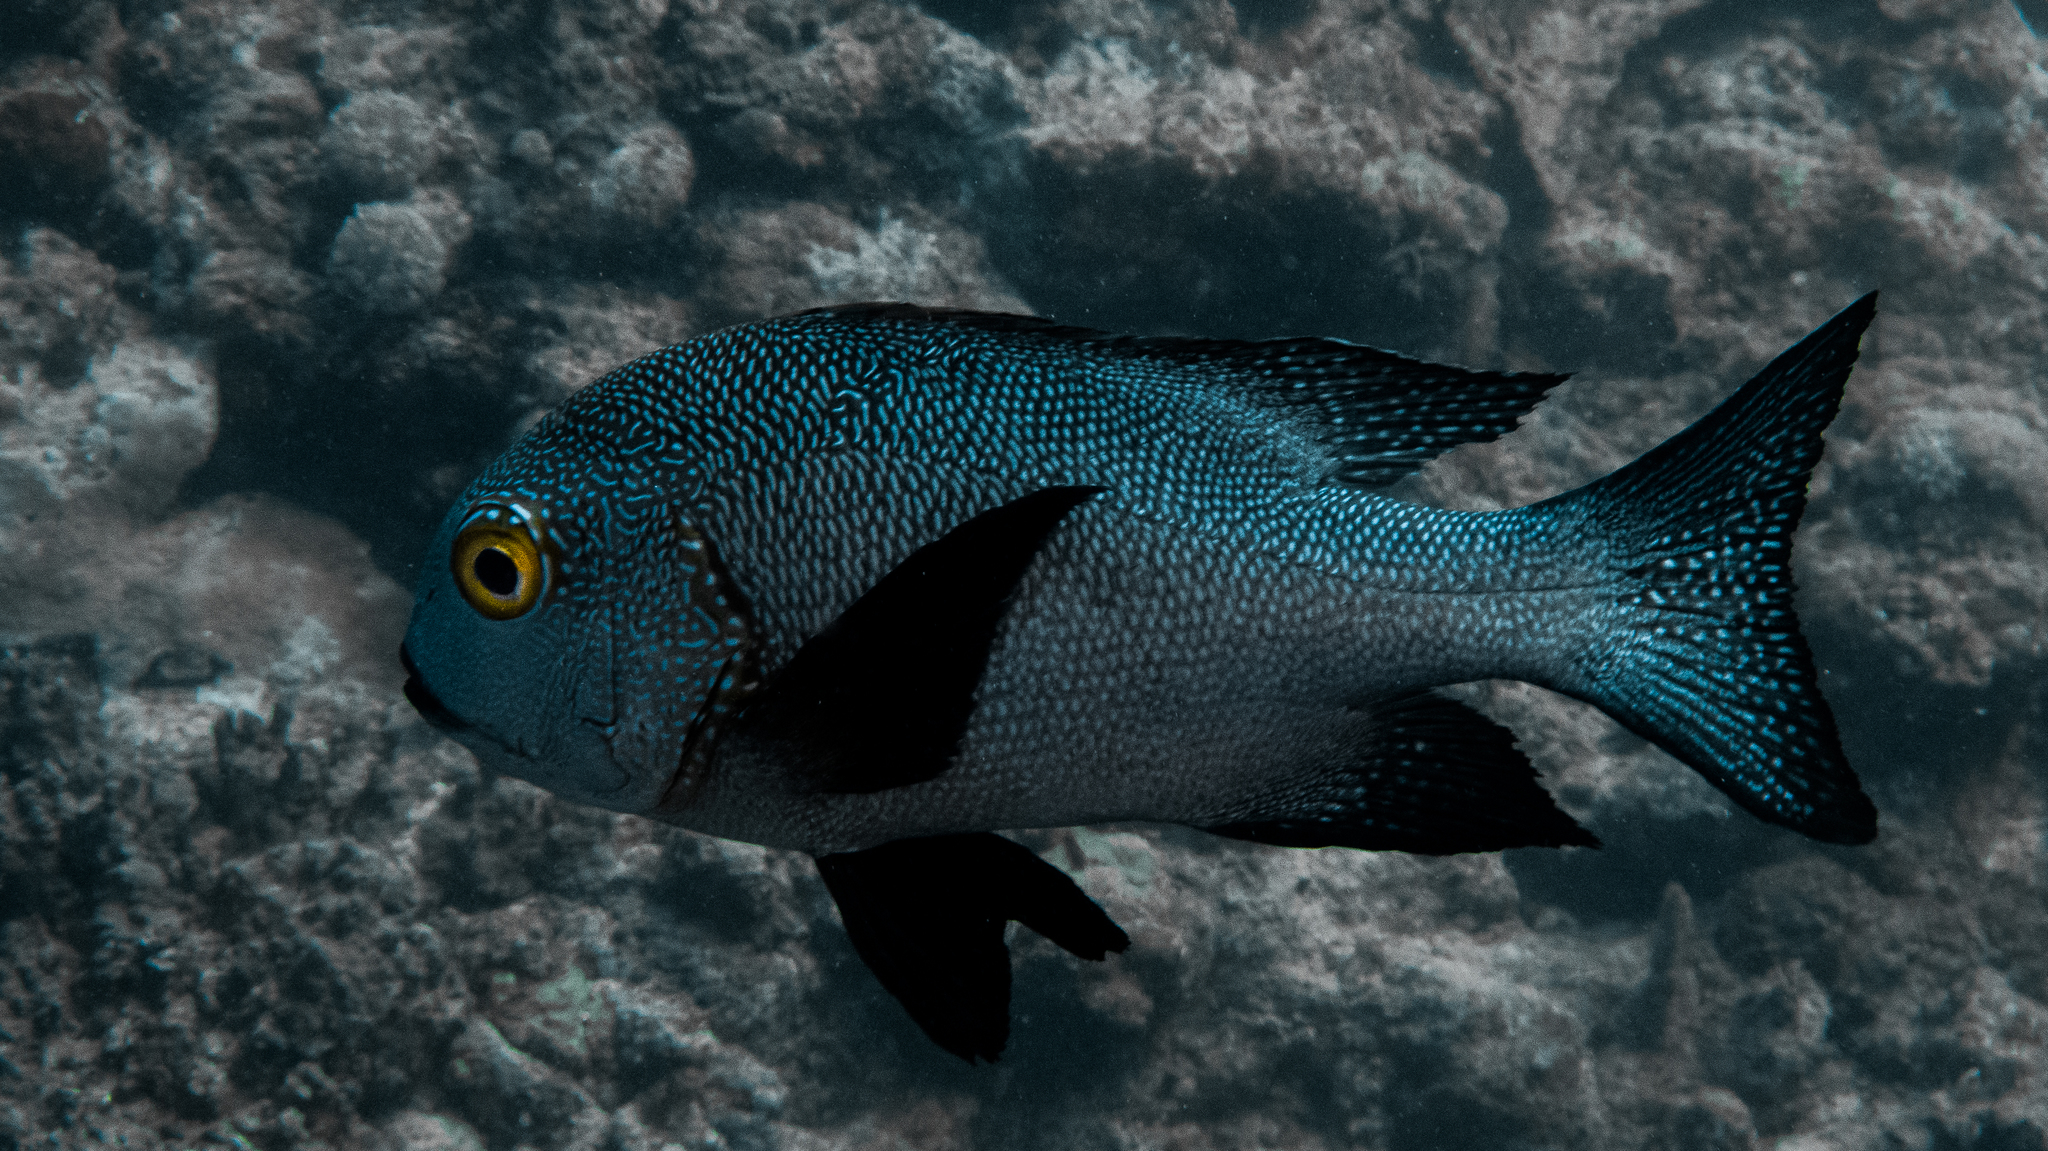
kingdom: Animalia
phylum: Chordata
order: Perciformes
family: Lutjanidae
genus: Macolor
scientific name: Macolor macularis
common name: Midnight snapper
